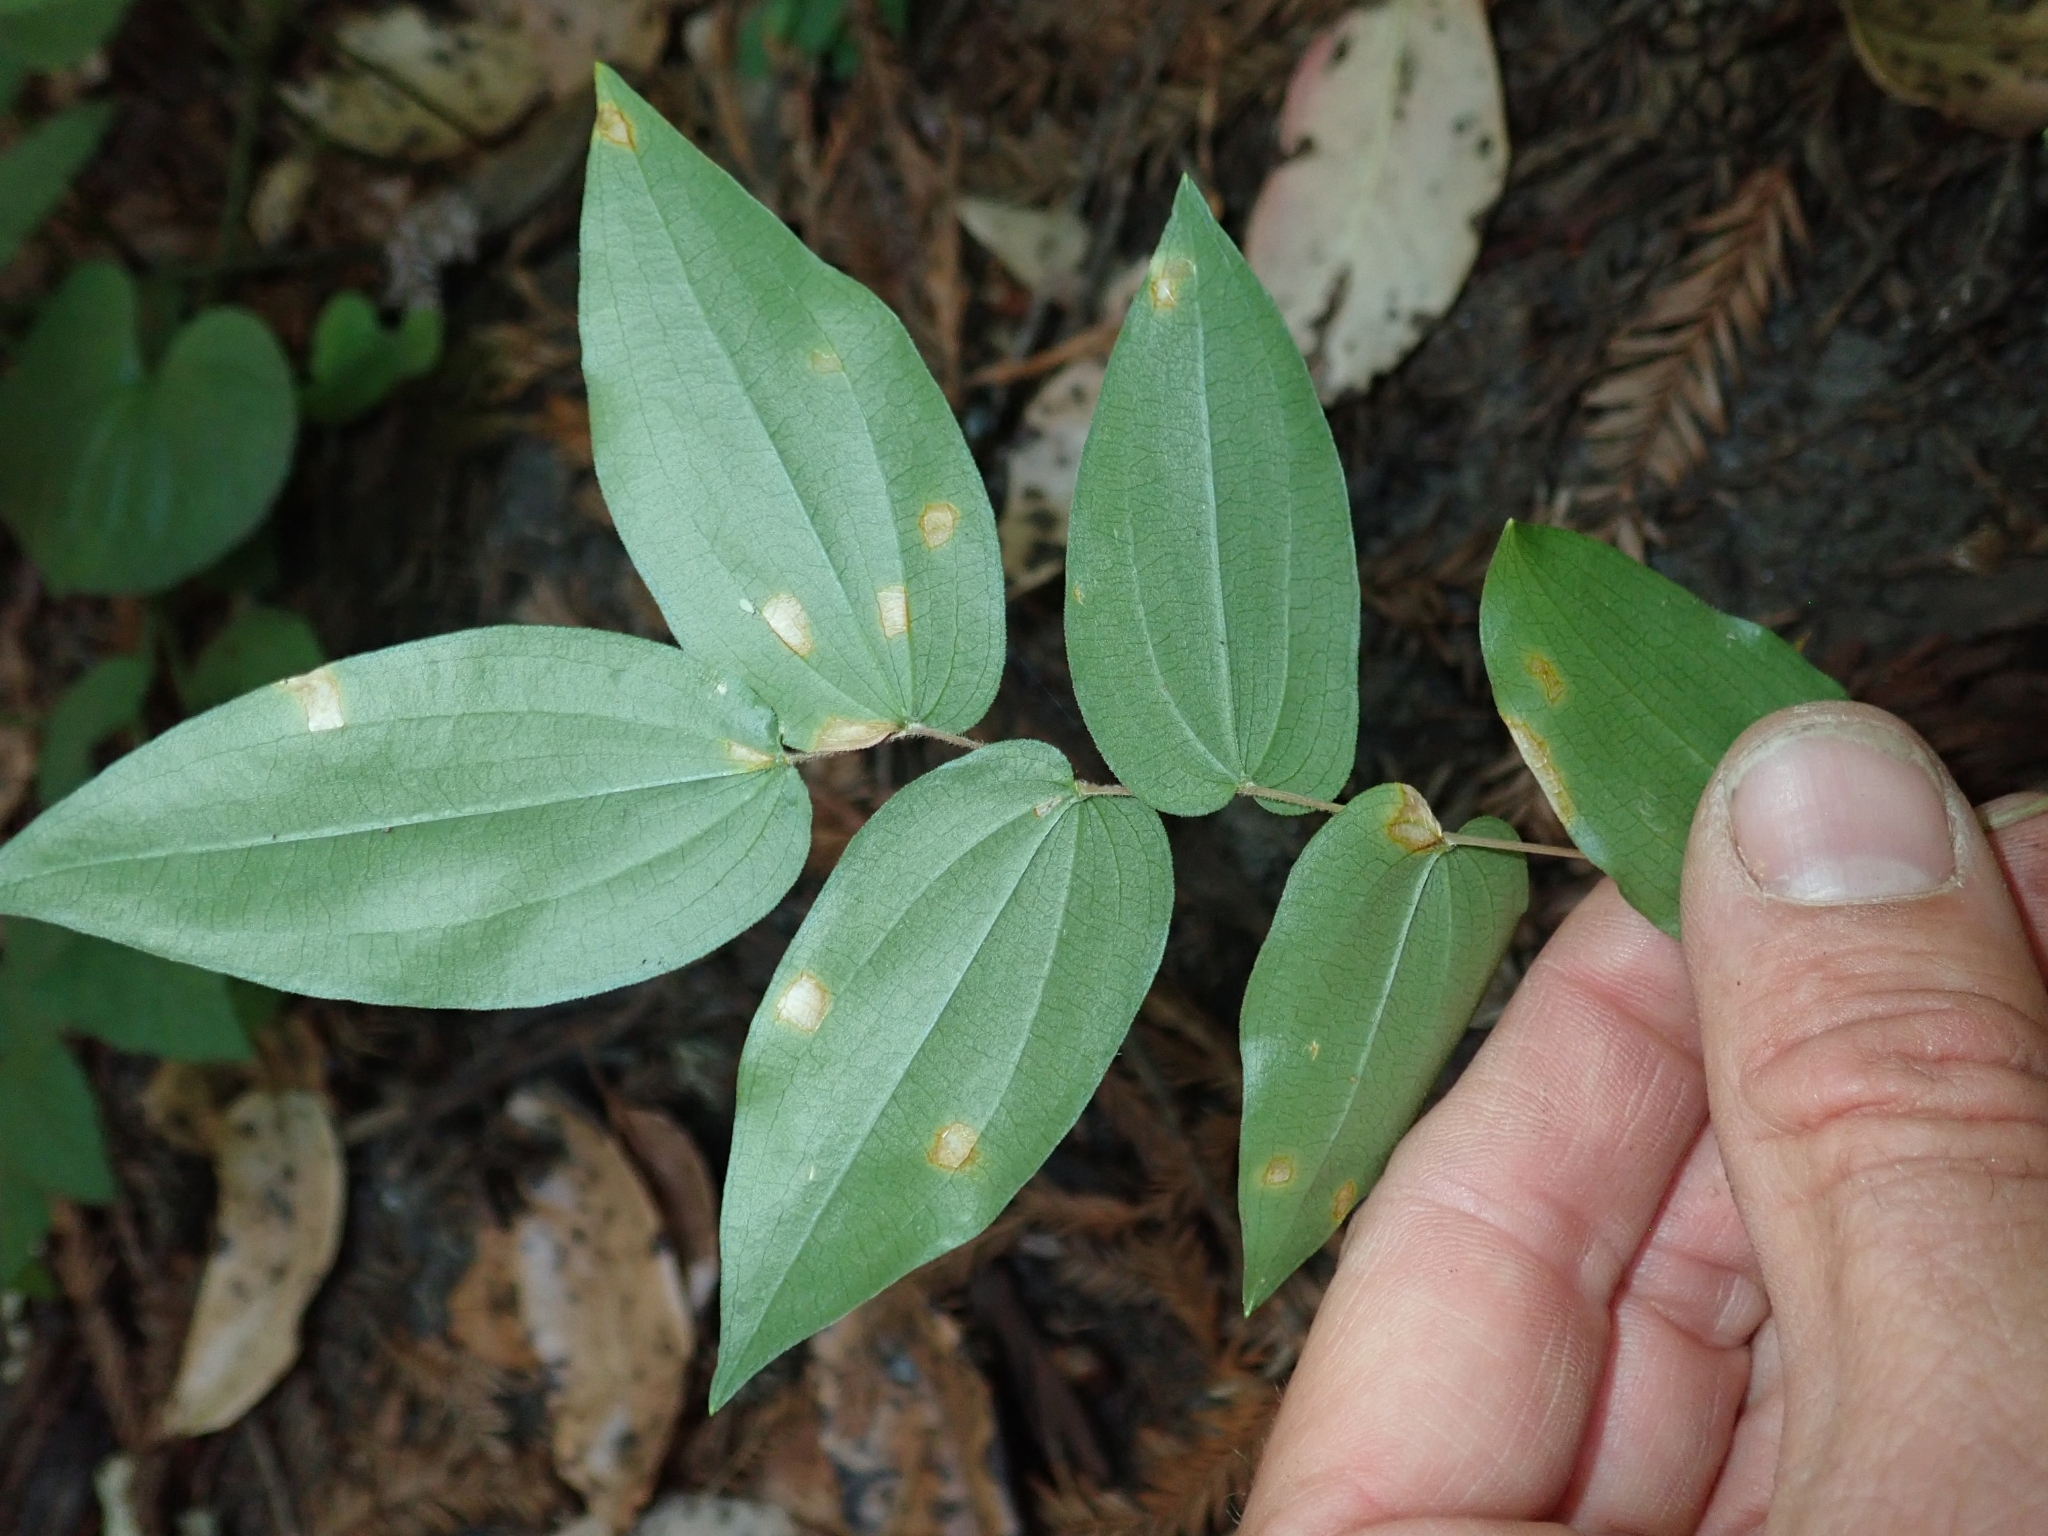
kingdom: Plantae
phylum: Tracheophyta
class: Liliopsida
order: Liliales
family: Liliaceae
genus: Prosartes
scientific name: Prosartes hookeri
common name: Fairy-bells
